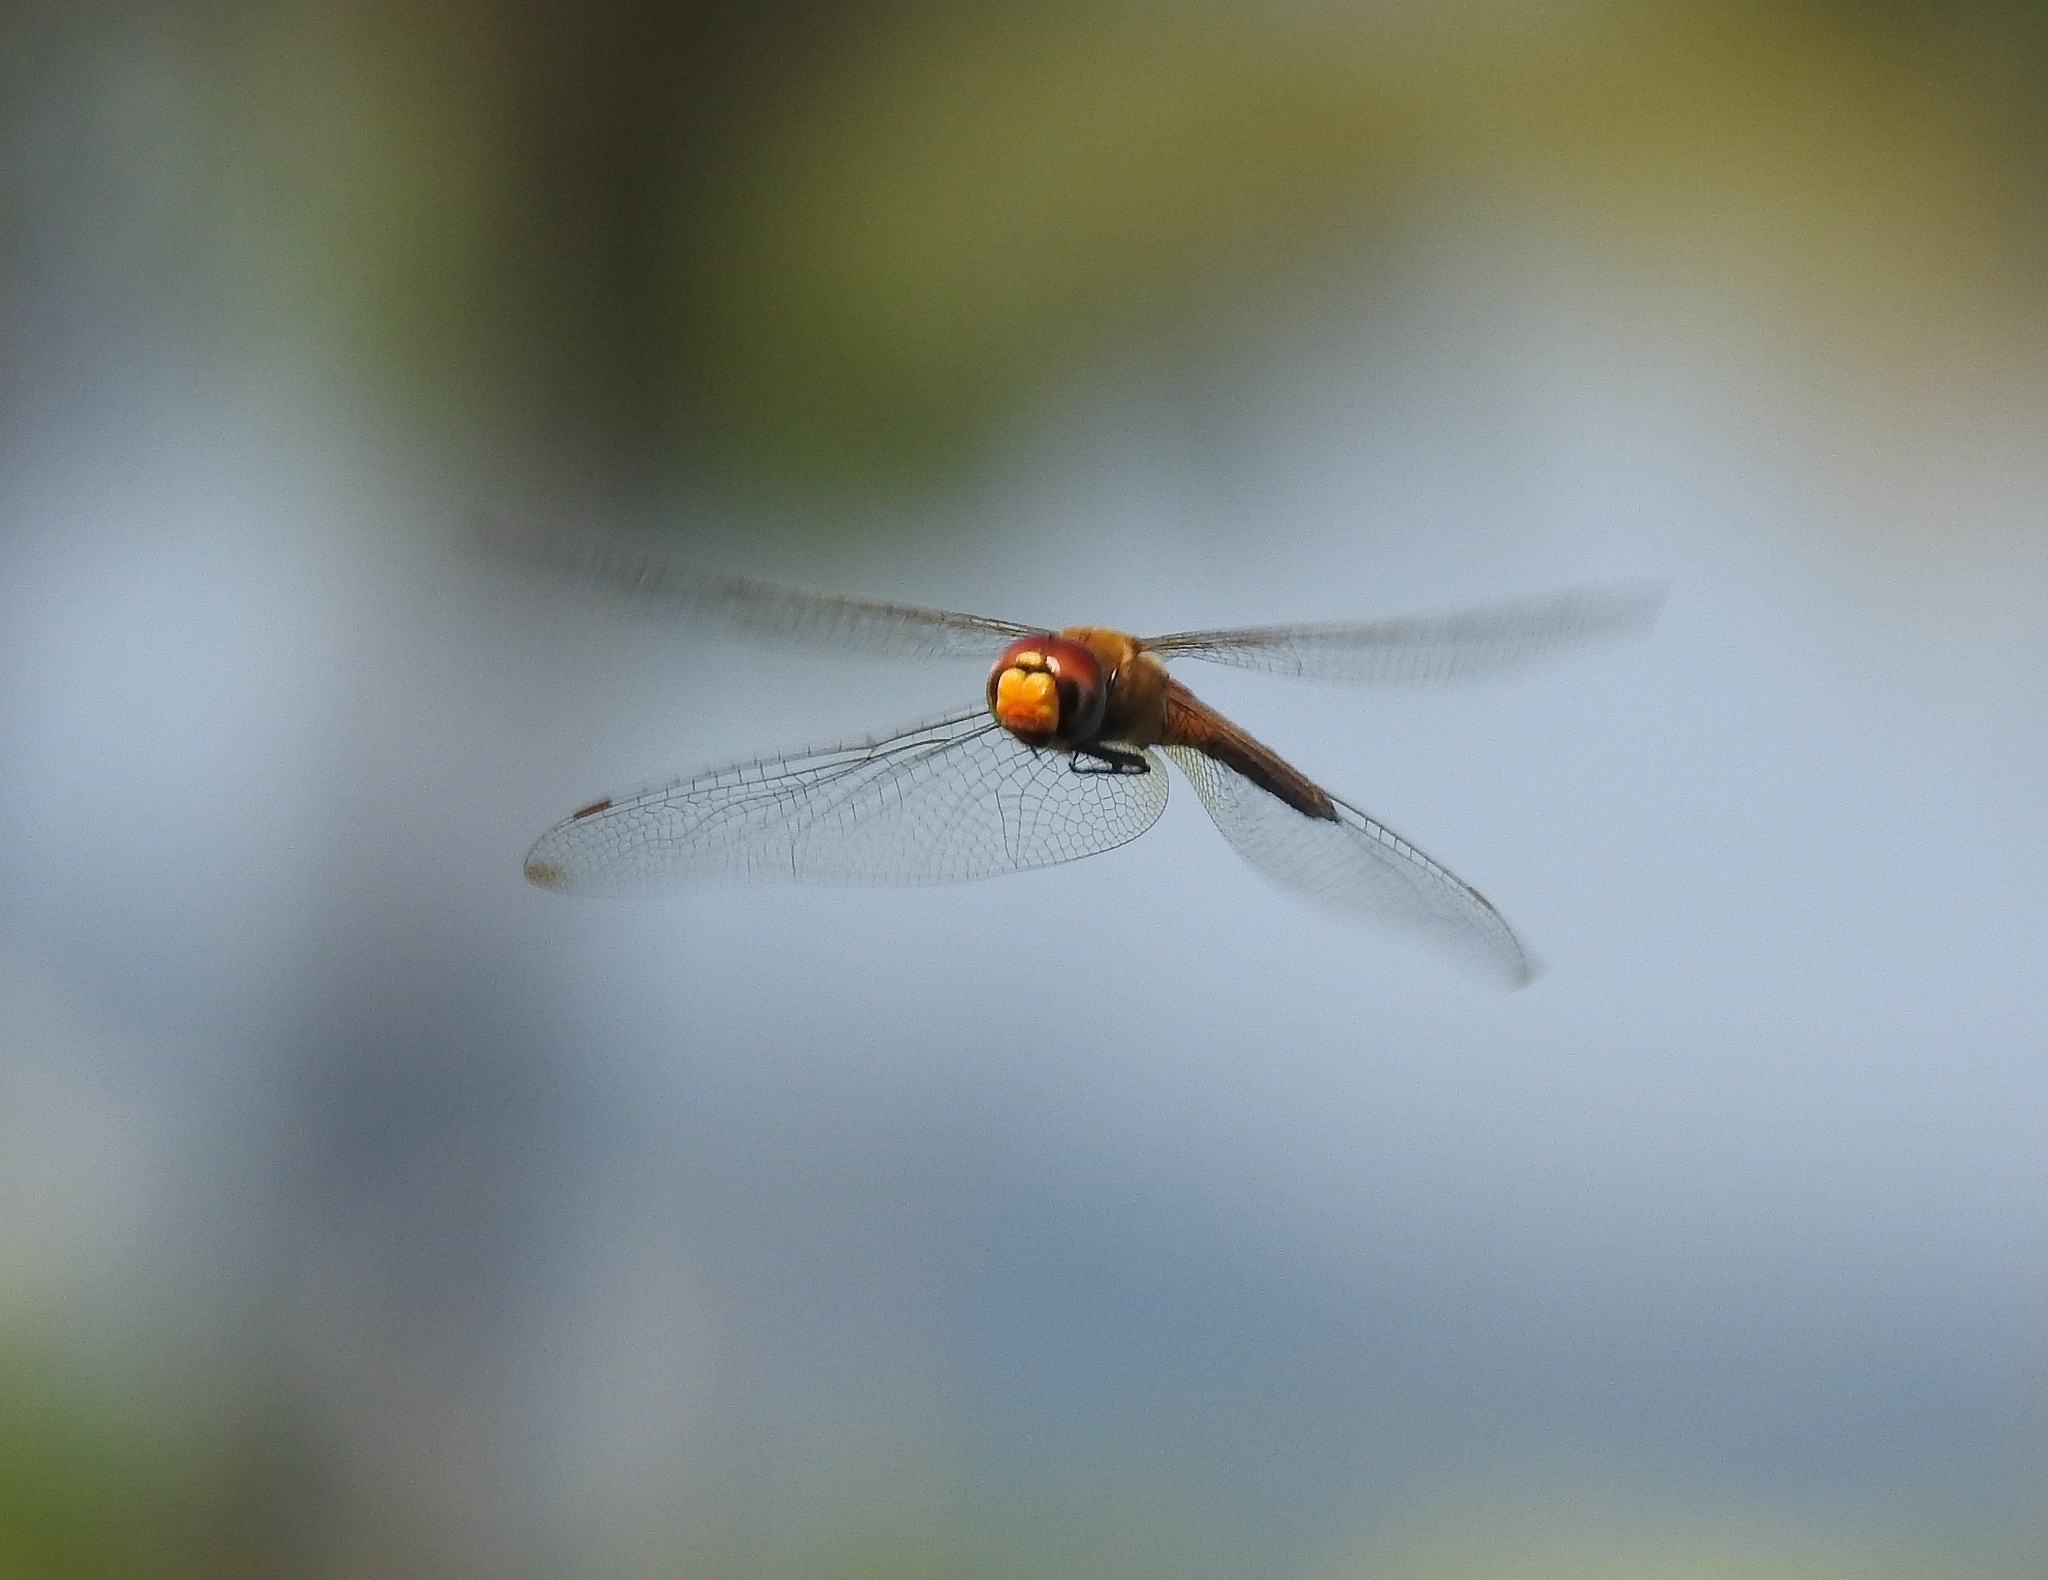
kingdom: Animalia
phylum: Arthropoda
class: Insecta
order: Odonata
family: Libellulidae
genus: Pantala
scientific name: Pantala flavescens
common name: Wandering glider
